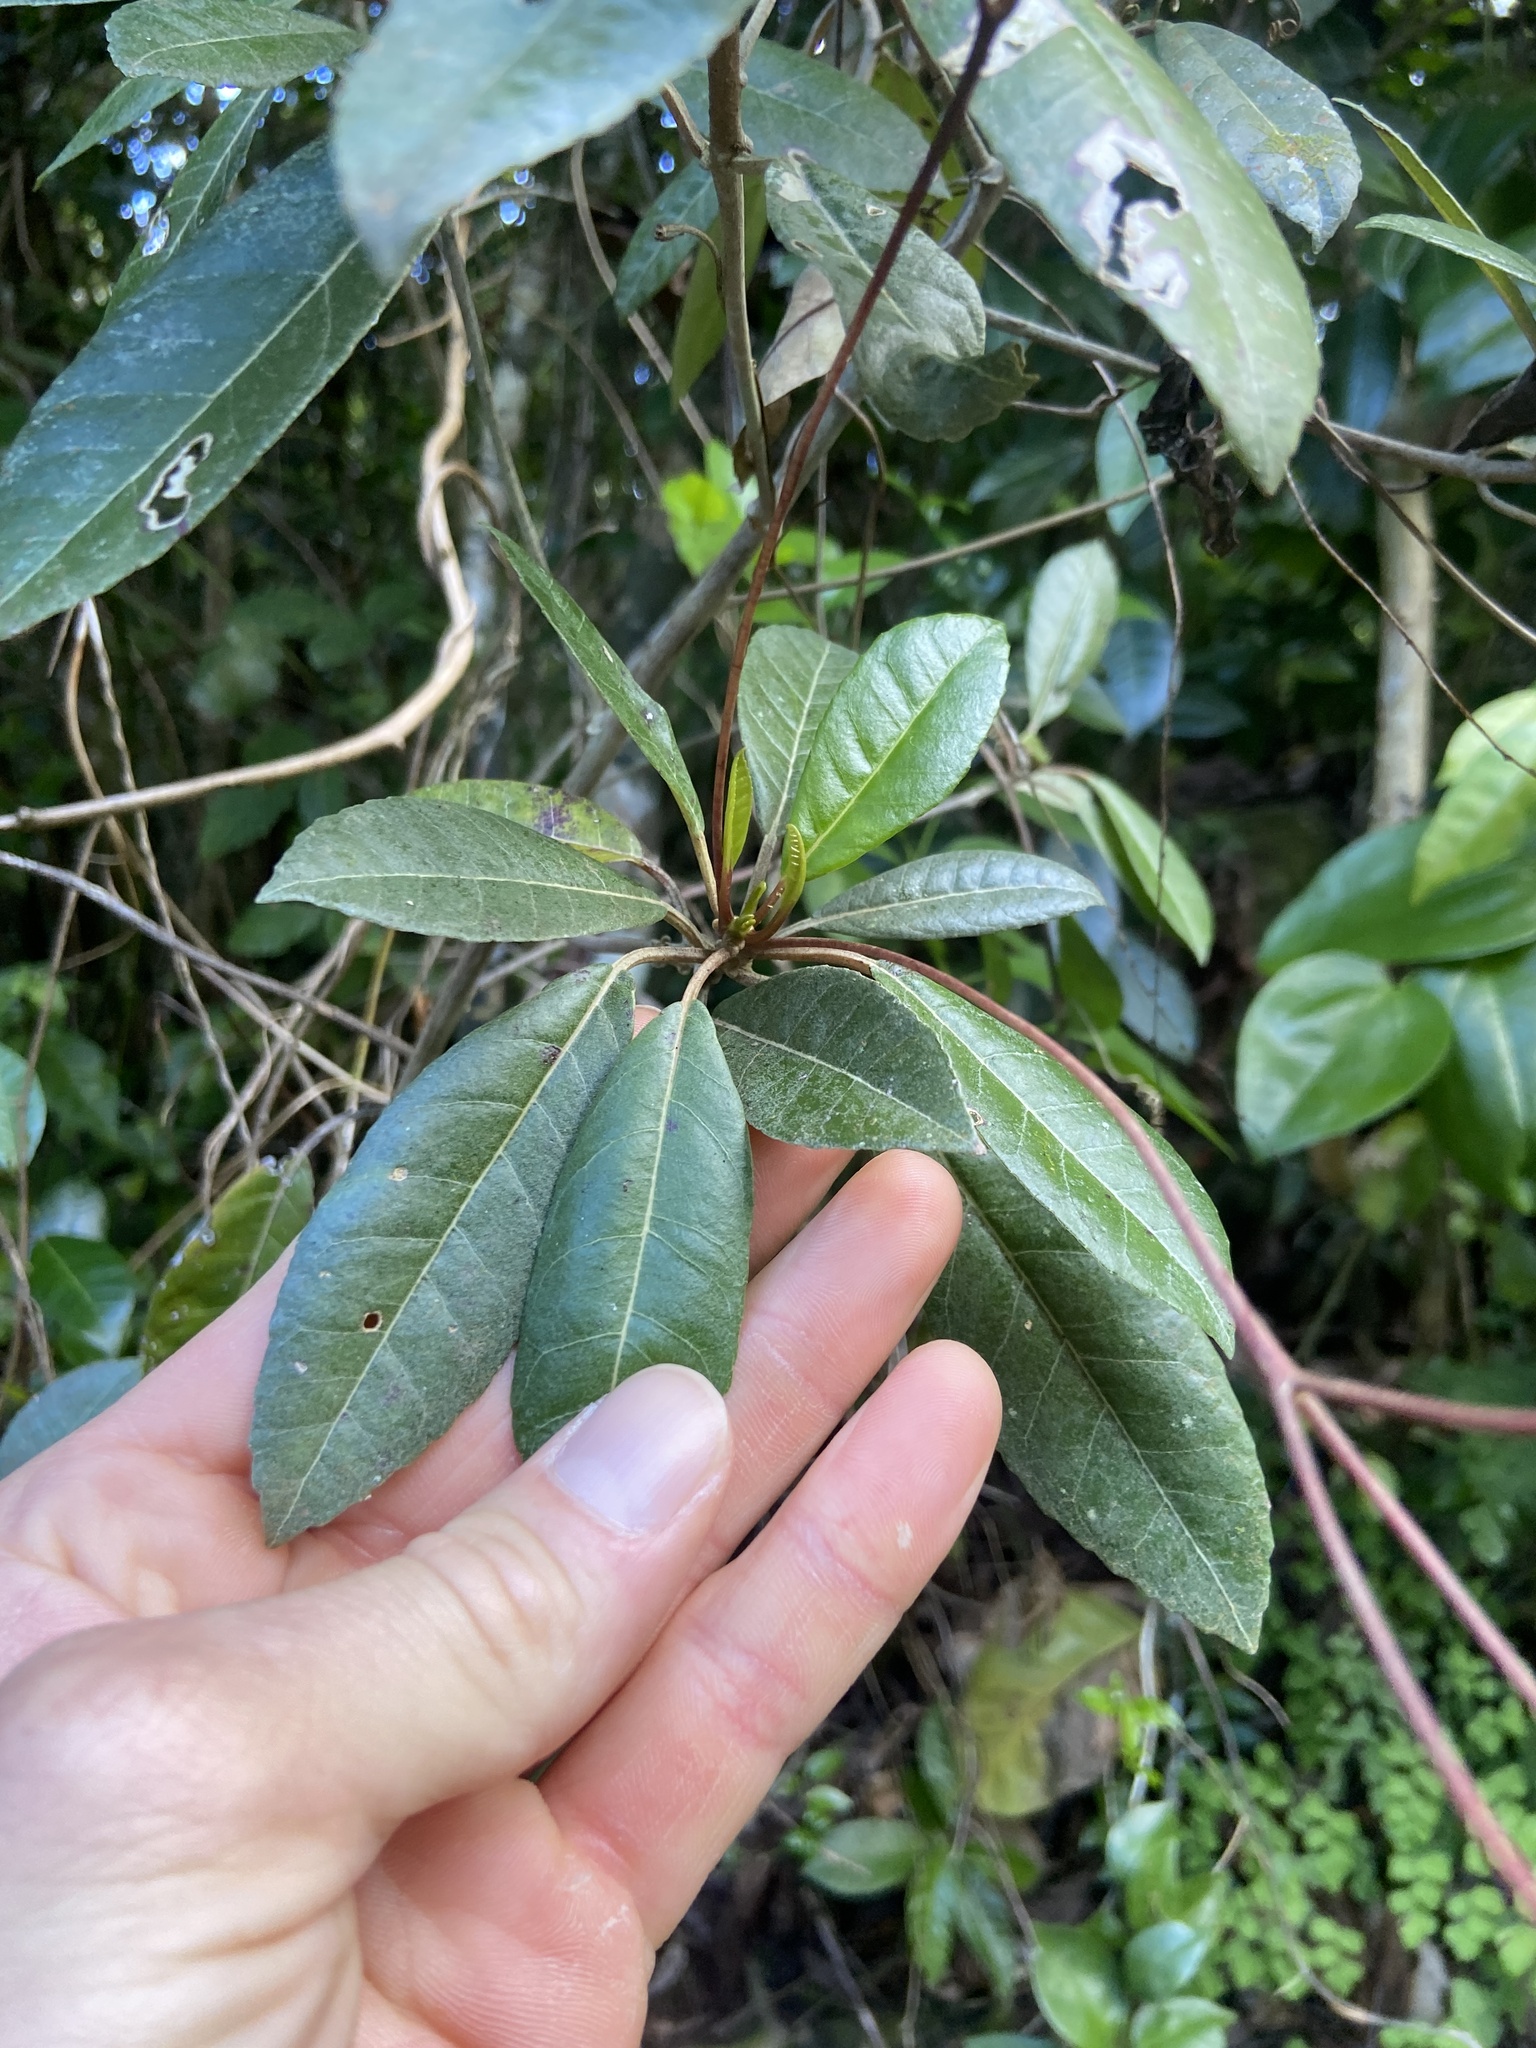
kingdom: Plantae
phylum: Tracheophyta
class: Magnoliopsida
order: Lamiales
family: Gesneriaceae
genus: Gesneria
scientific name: Gesneria pedunculosa
